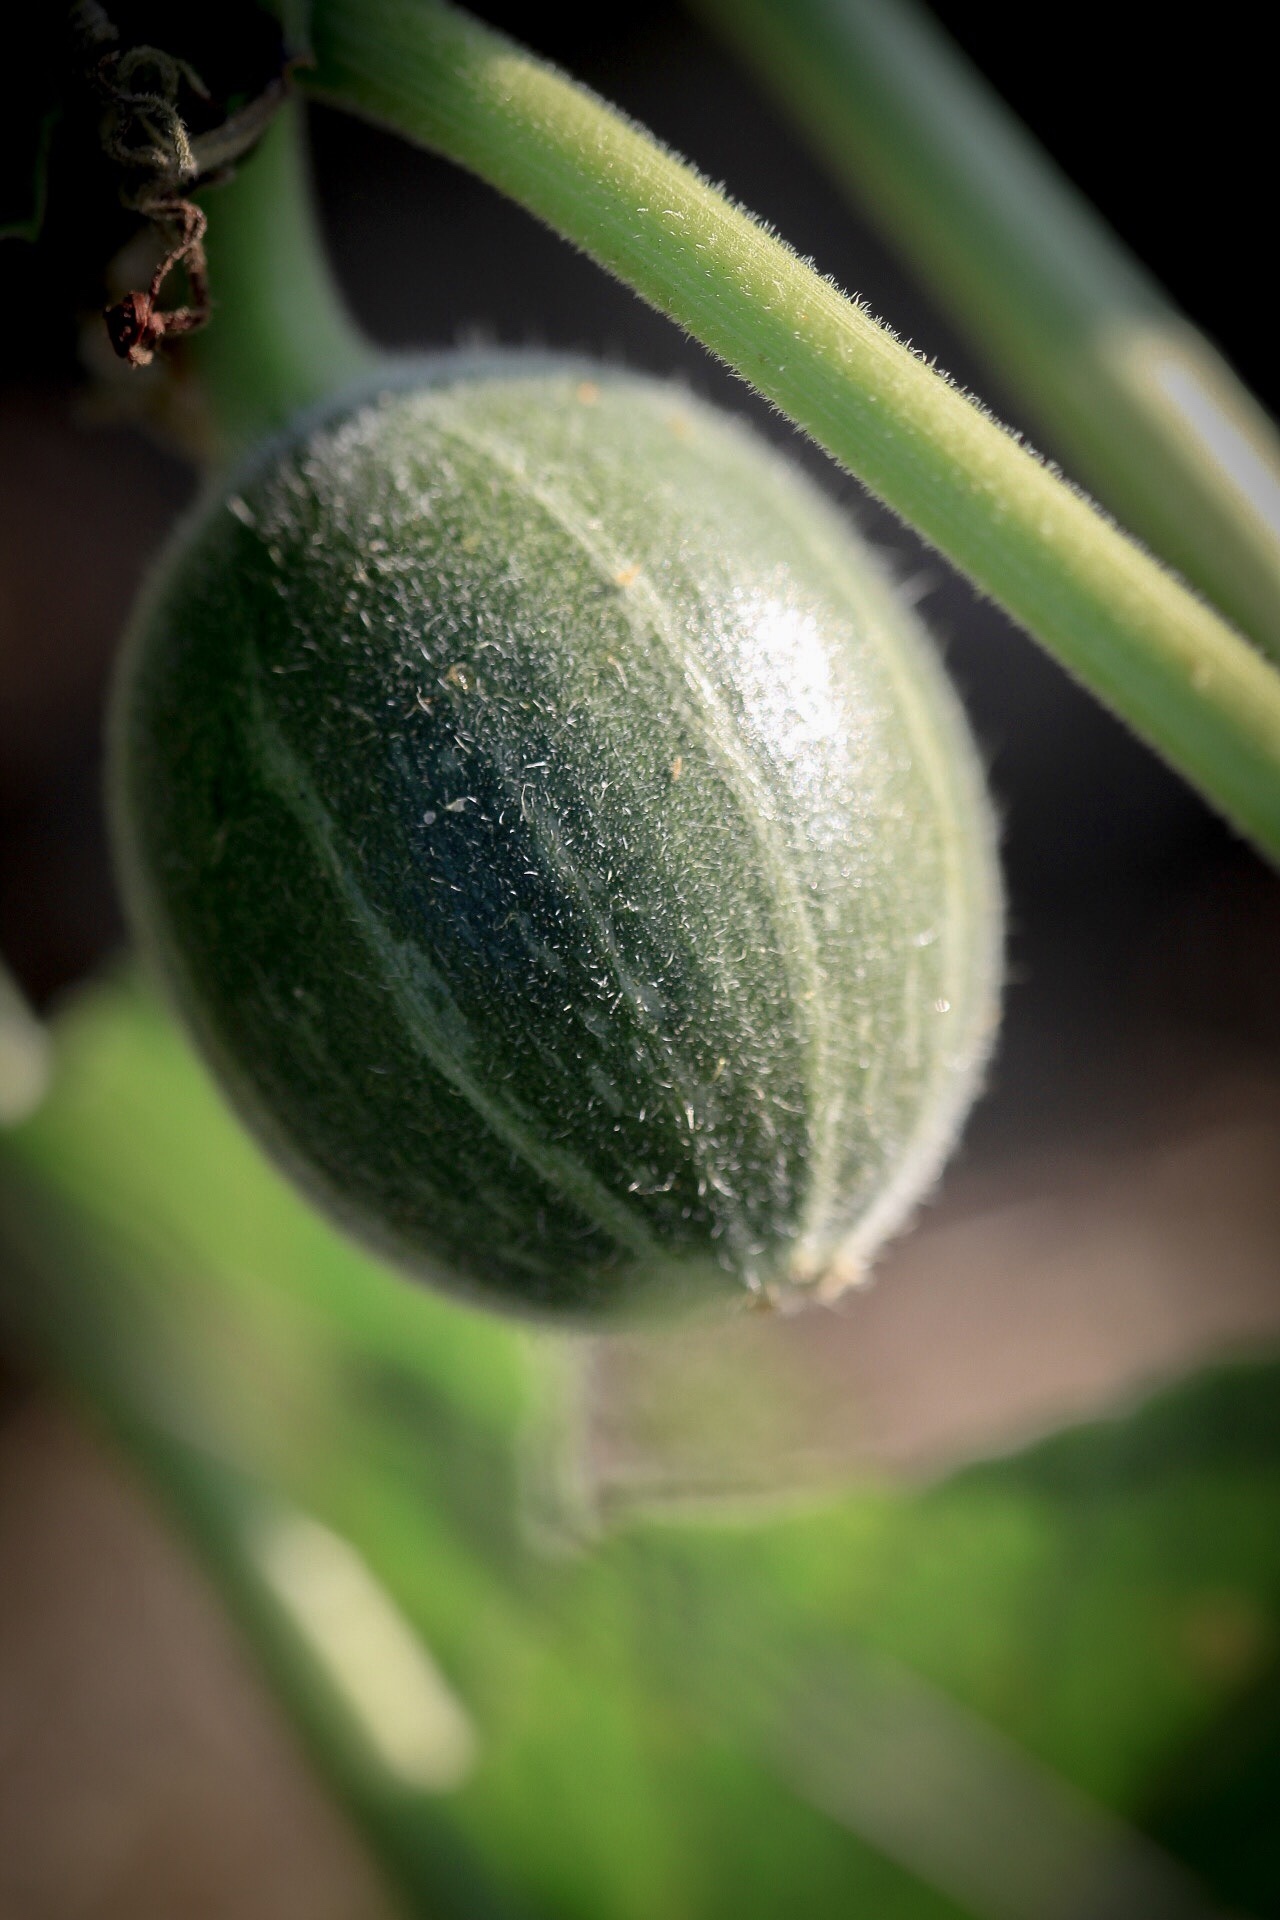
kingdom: Plantae
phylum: Tracheophyta
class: Magnoliopsida
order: Cucurbitales
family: Cucurbitaceae
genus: Cucurbita
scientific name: Cucurbita foetidissima
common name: Buffalo gourd
